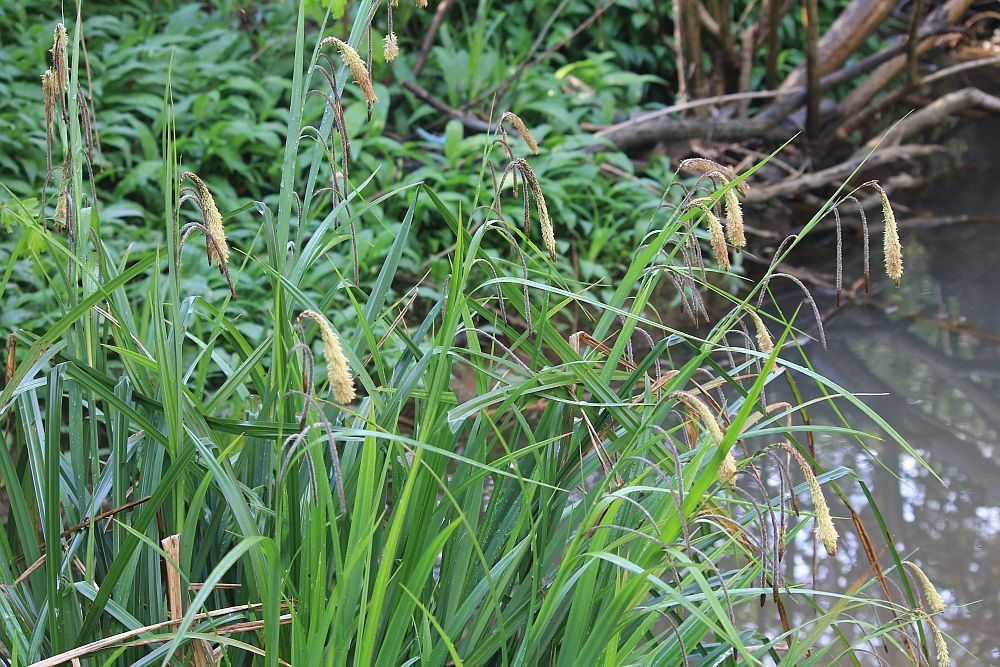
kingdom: Plantae
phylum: Tracheophyta
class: Liliopsida
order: Poales
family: Cyperaceae
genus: Carex
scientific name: Carex pendula
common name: Pendulous sedge
